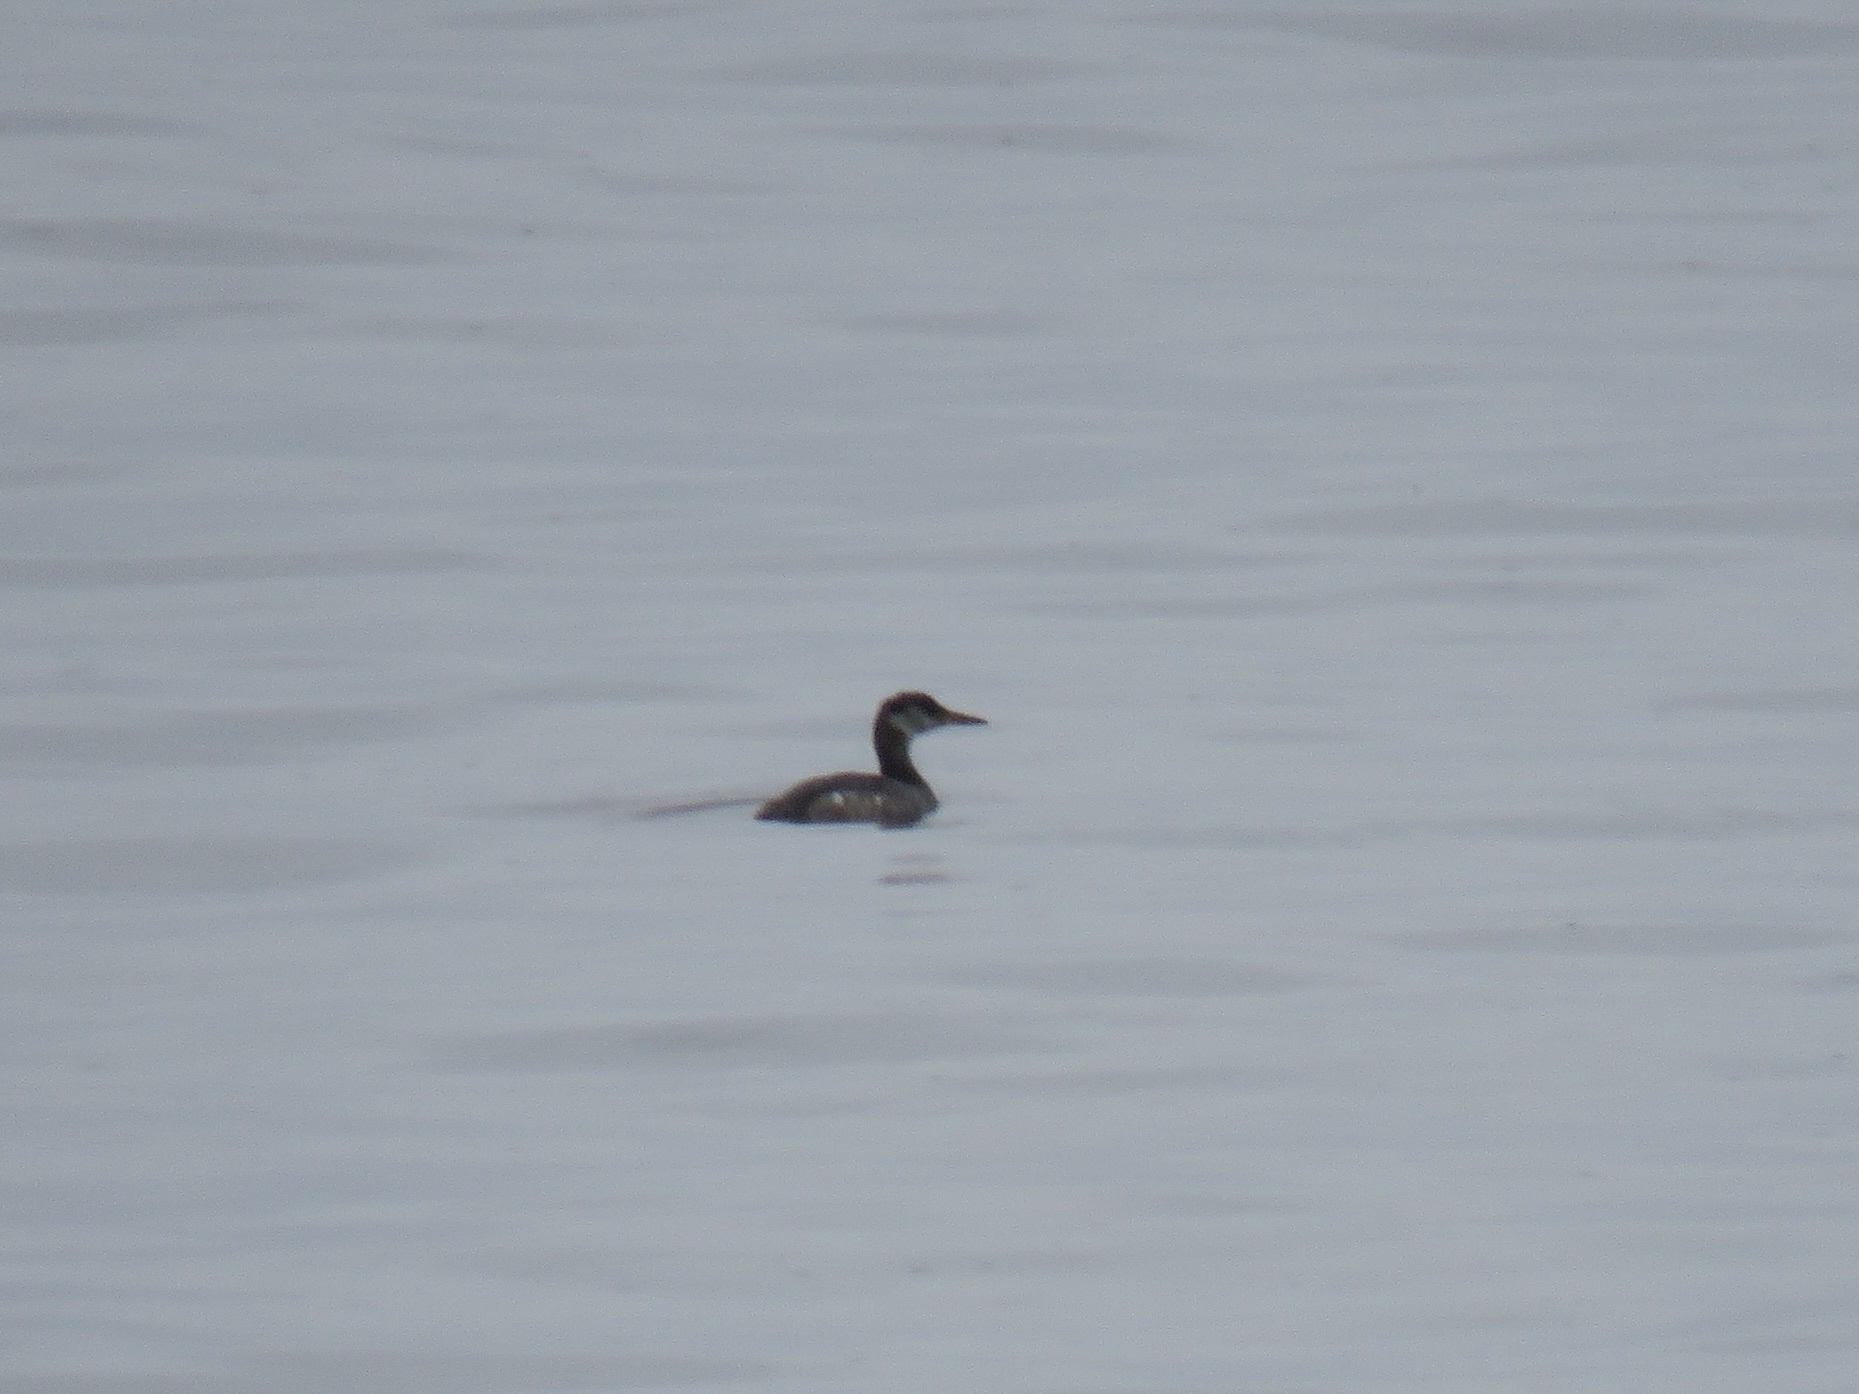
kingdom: Animalia
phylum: Chordata
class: Aves
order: Podicipediformes
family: Podicipedidae
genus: Podiceps
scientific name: Podiceps grisegena
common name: Red-necked grebe
